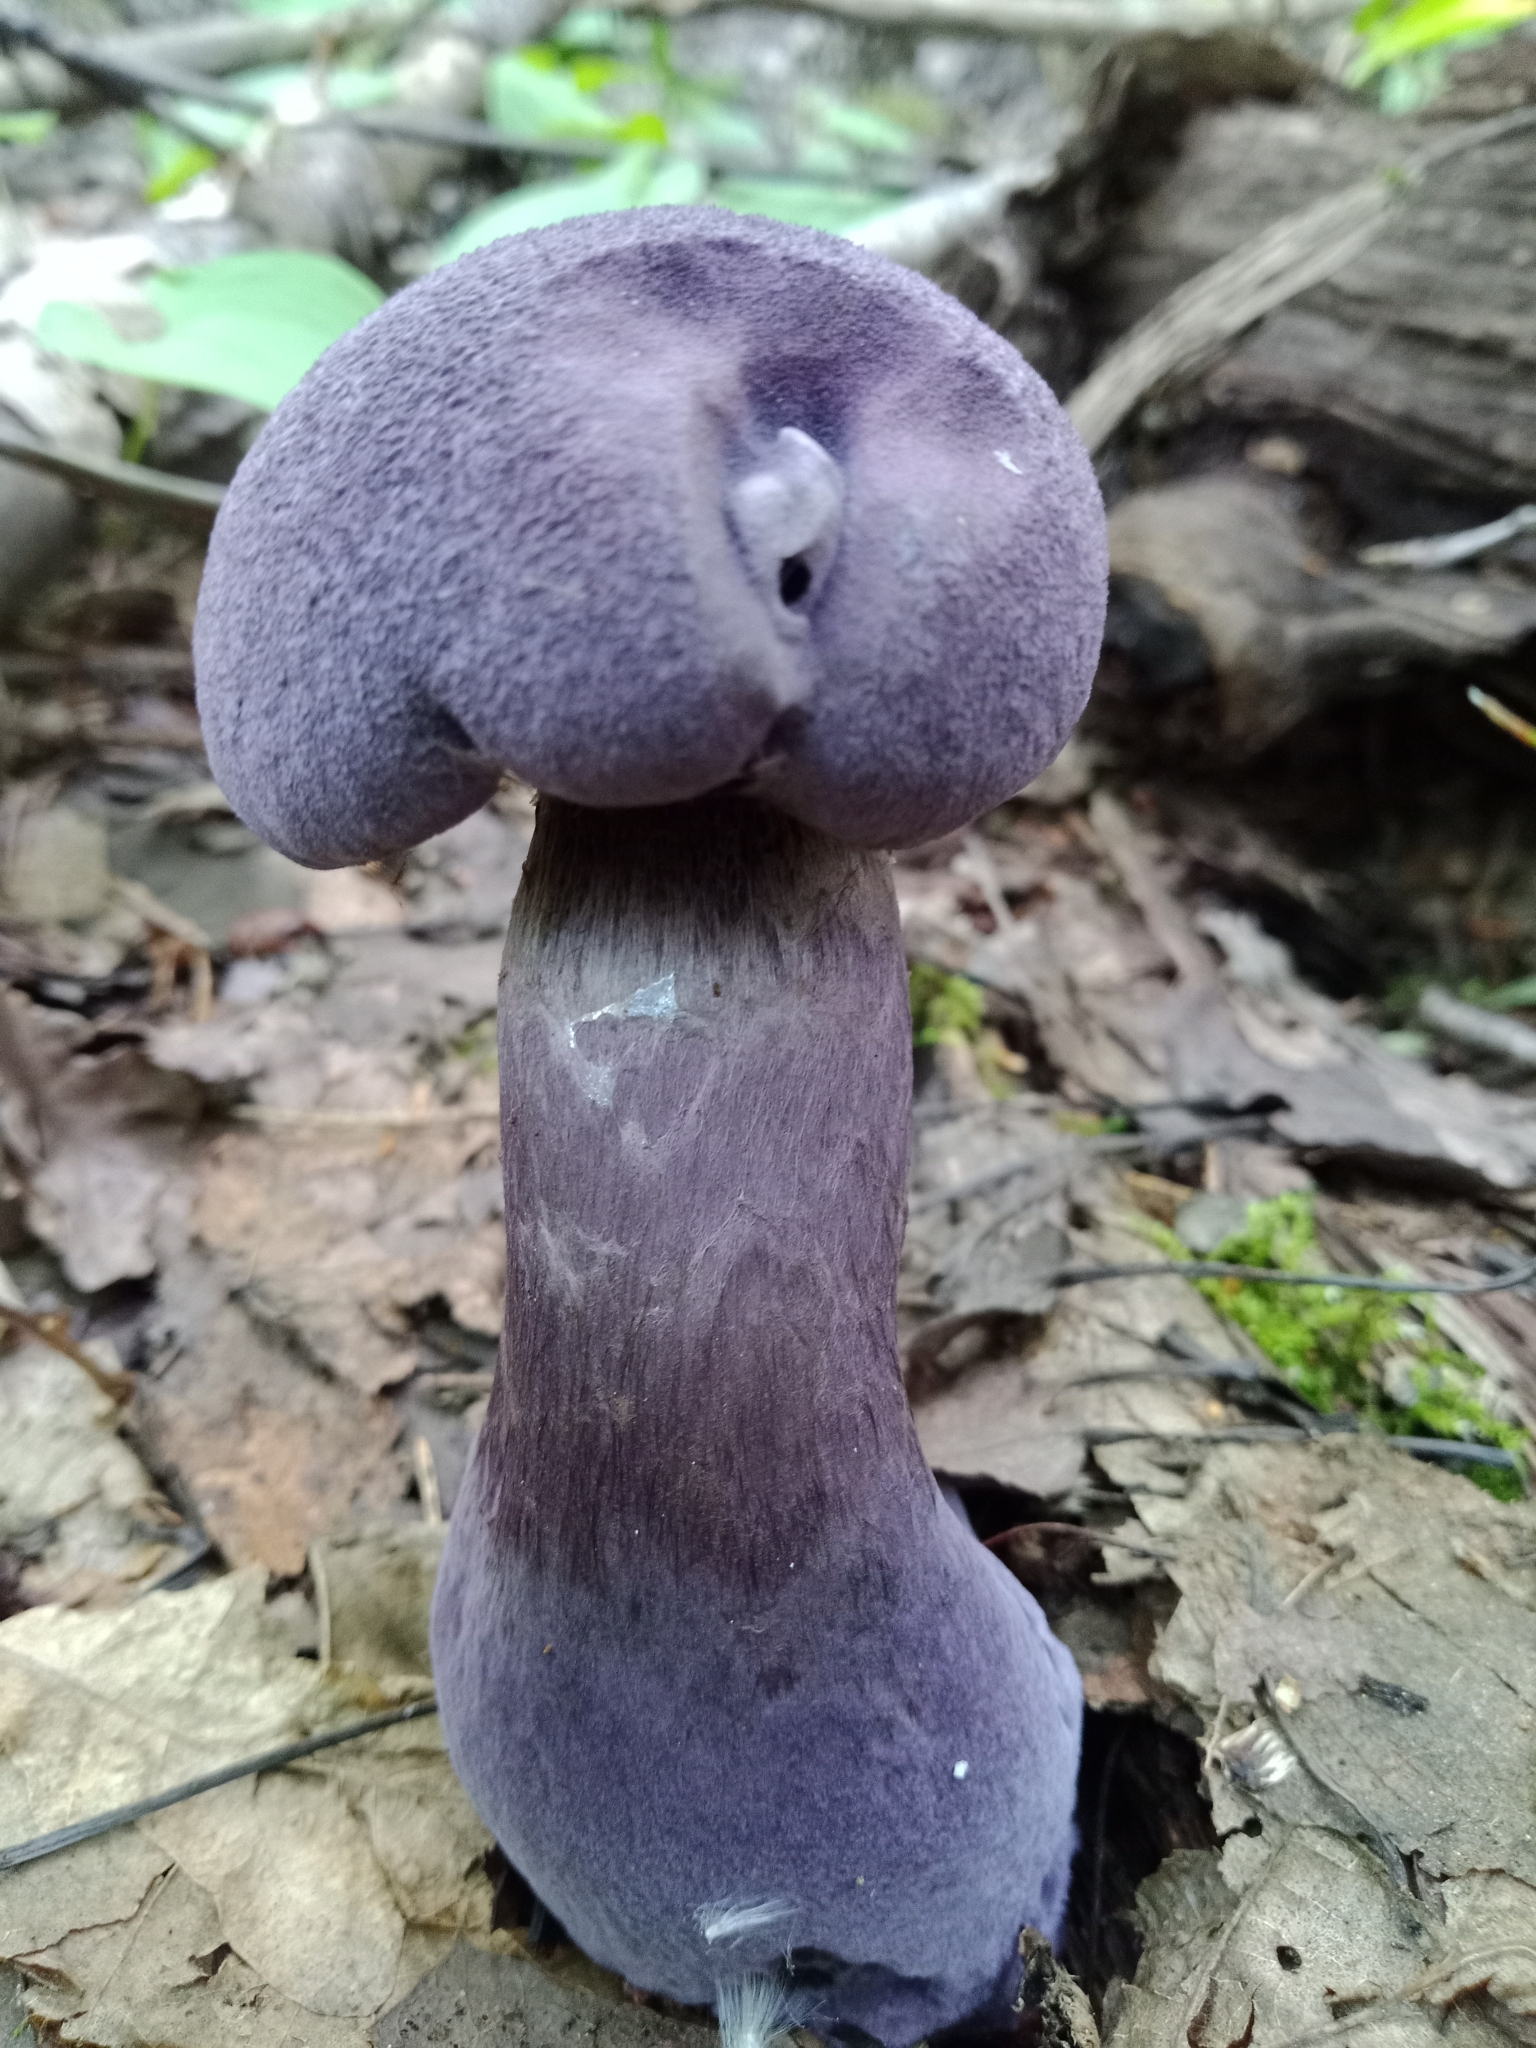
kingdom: Fungi
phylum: Basidiomycota
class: Agaricomycetes
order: Agaricales
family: Cortinariaceae
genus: Cortinarius
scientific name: Cortinarius violaceus
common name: Violet webcap
